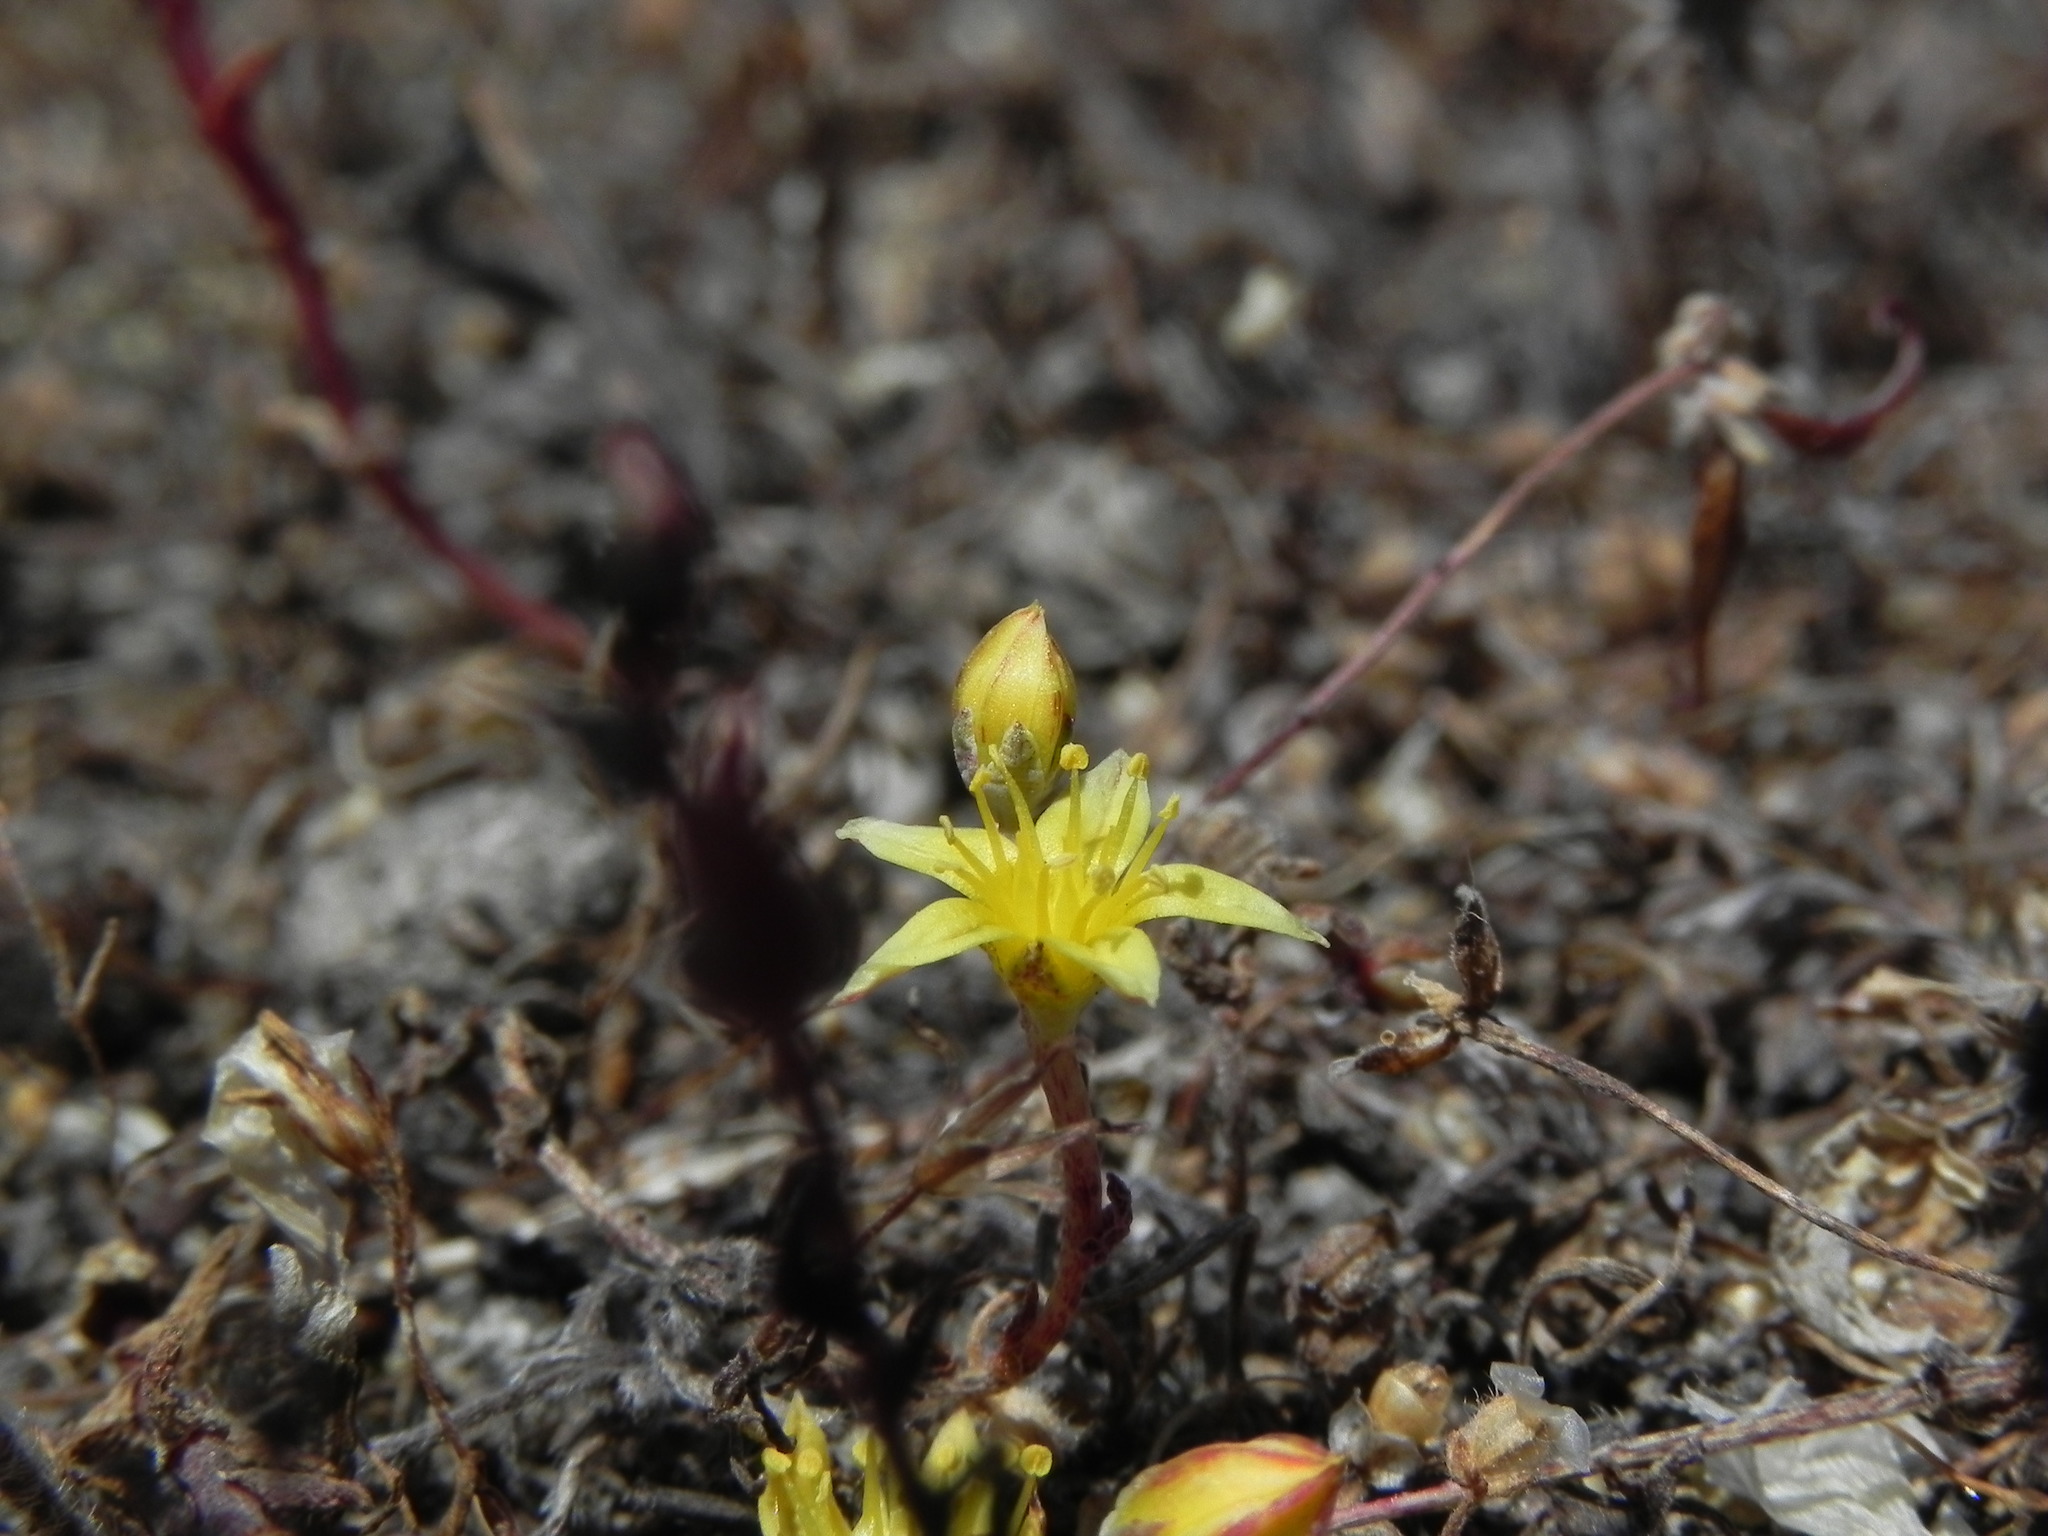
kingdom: Plantae
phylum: Tracheophyta
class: Magnoliopsida
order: Saxifragales
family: Crassulaceae
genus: Dudleya
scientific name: Dudleya variegata
